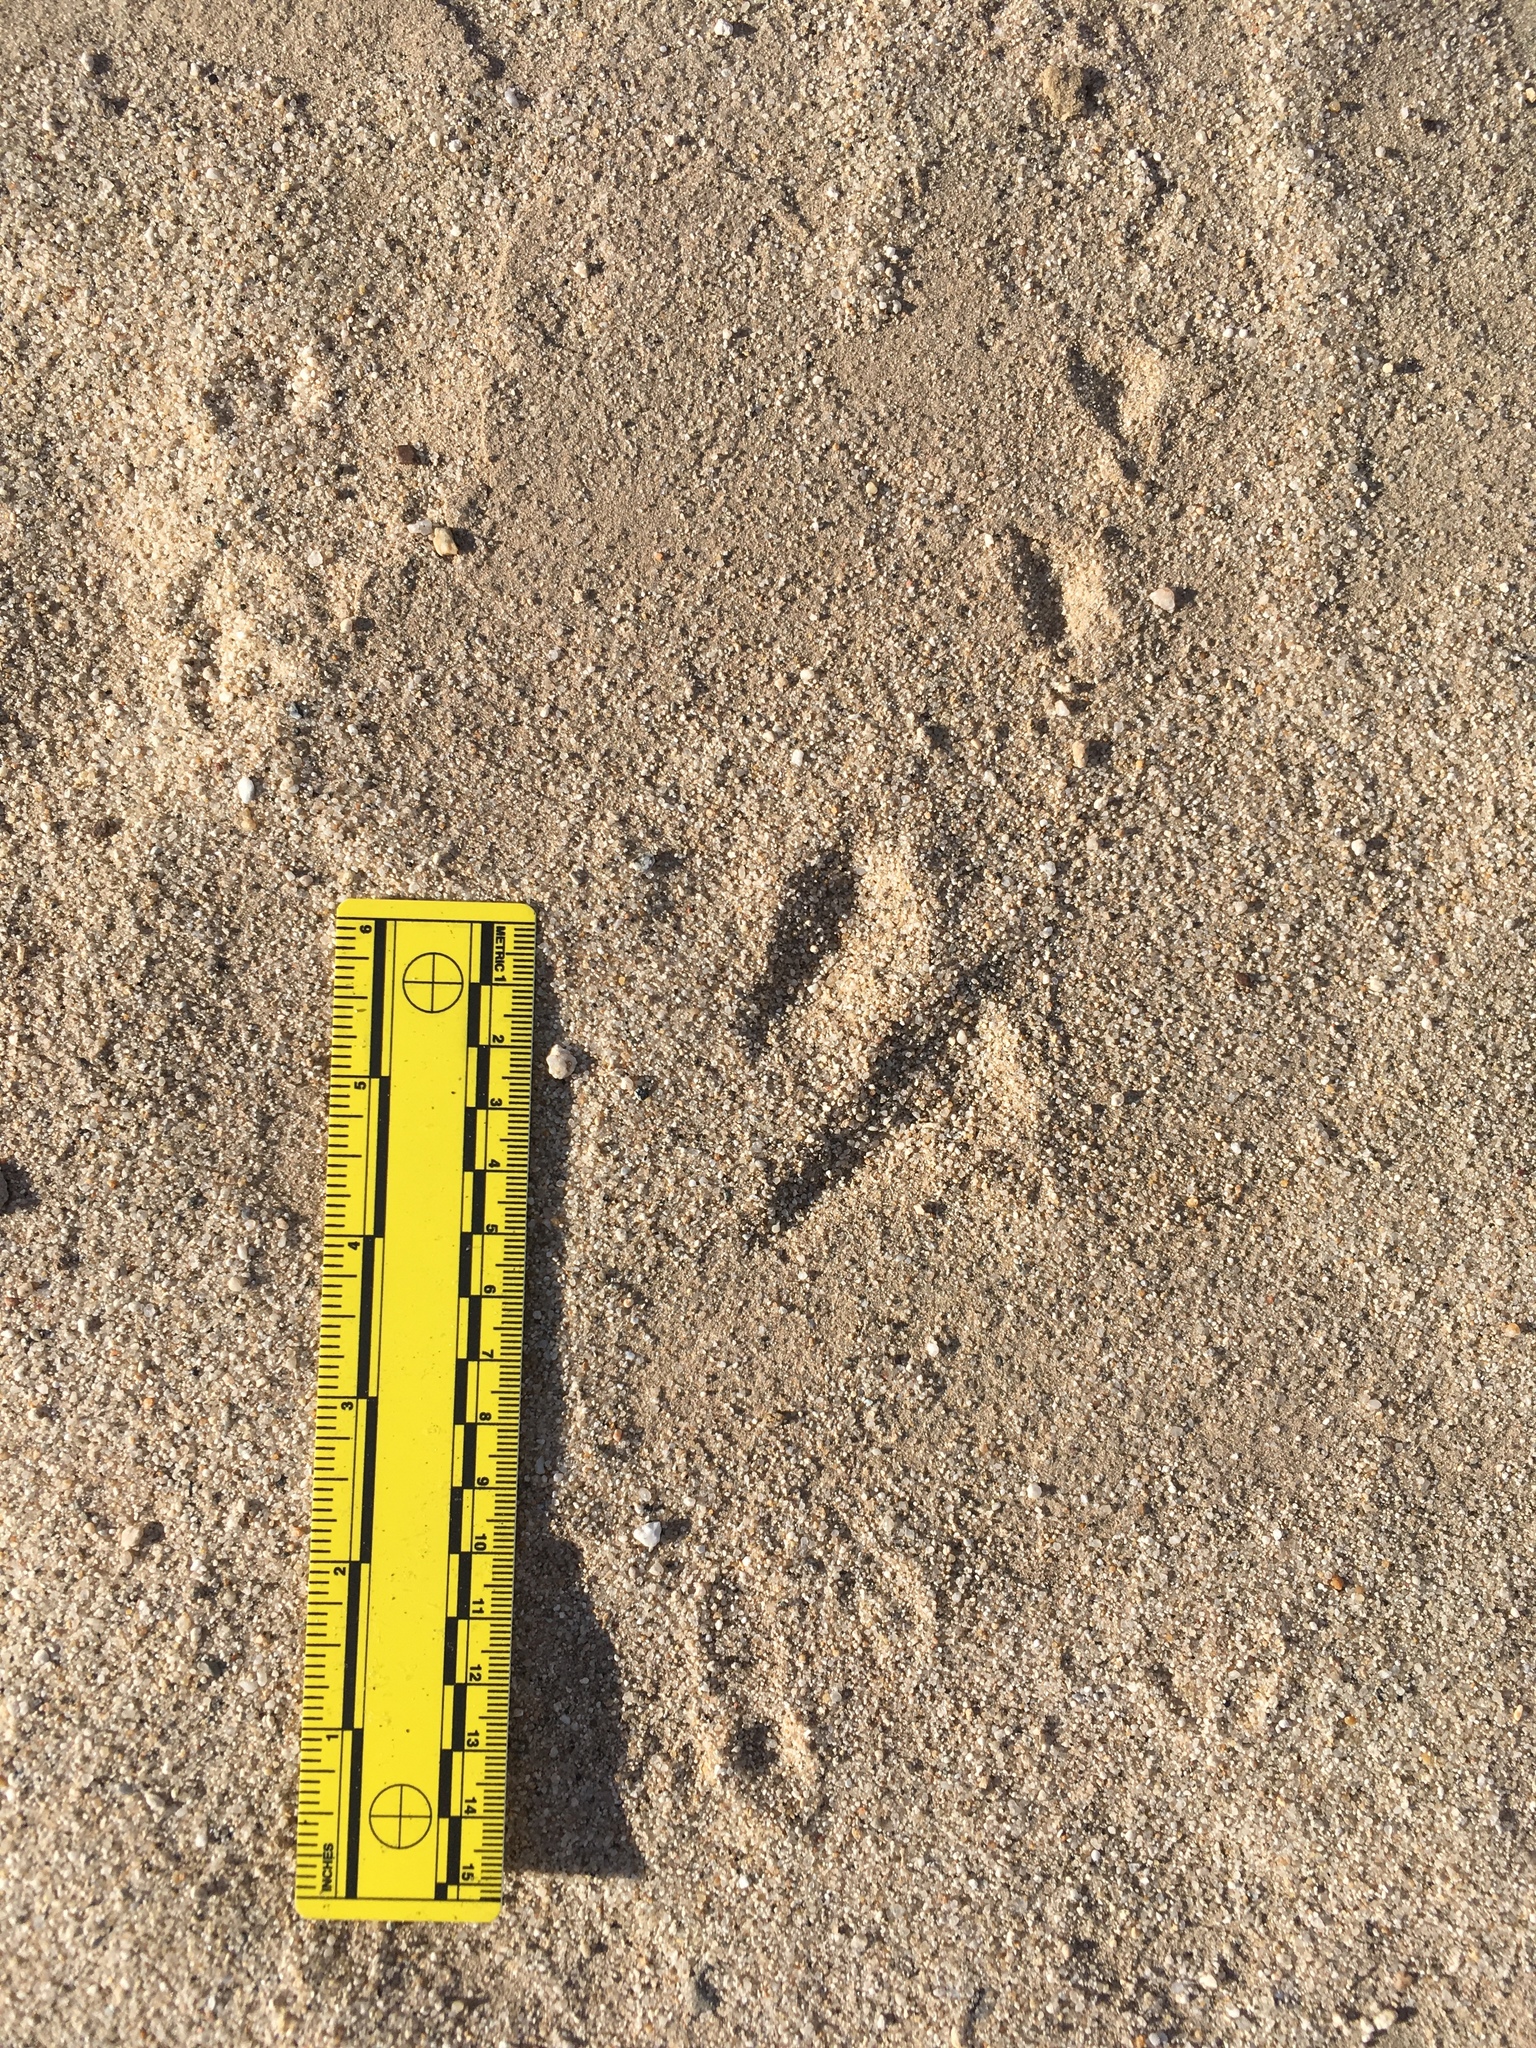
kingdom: Animalia
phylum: Chordata
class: Mammalia
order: Rodentia
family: Heteromyidae
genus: Dipodomys
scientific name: Dipodomys deserti
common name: Desert kangaroo rat
